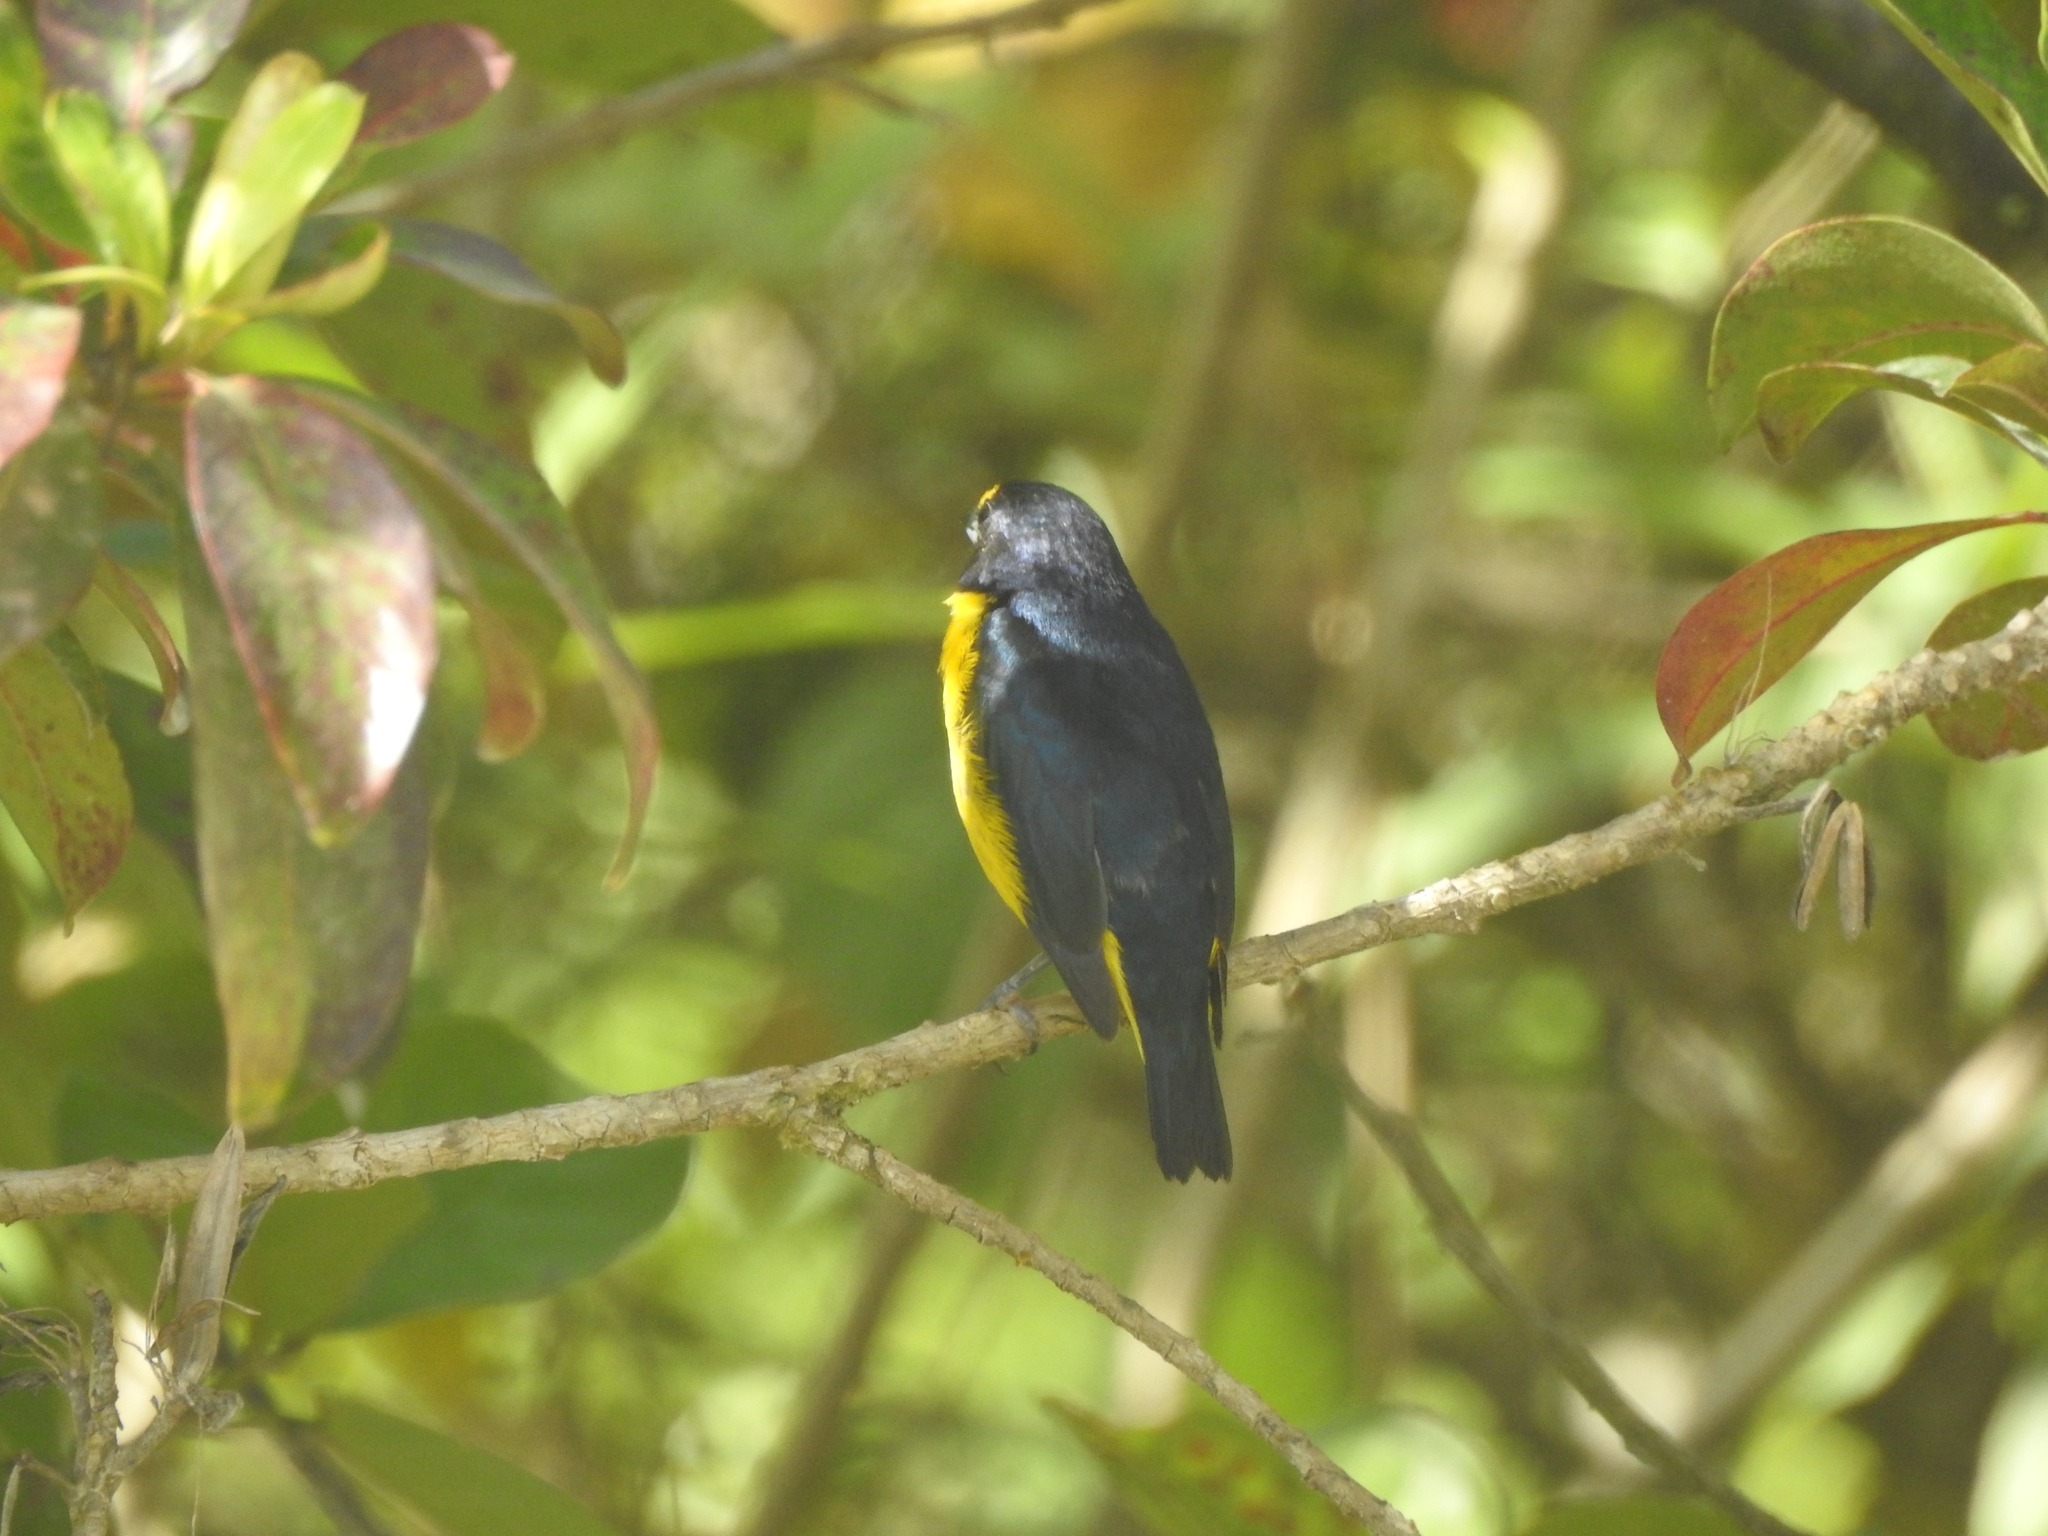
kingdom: Animalia
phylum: Chordata
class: Aves
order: Passeriformes
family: Fringillidae
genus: Euphonia
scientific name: Euphonia hirundinacea
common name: Yellow-throated euphonia
